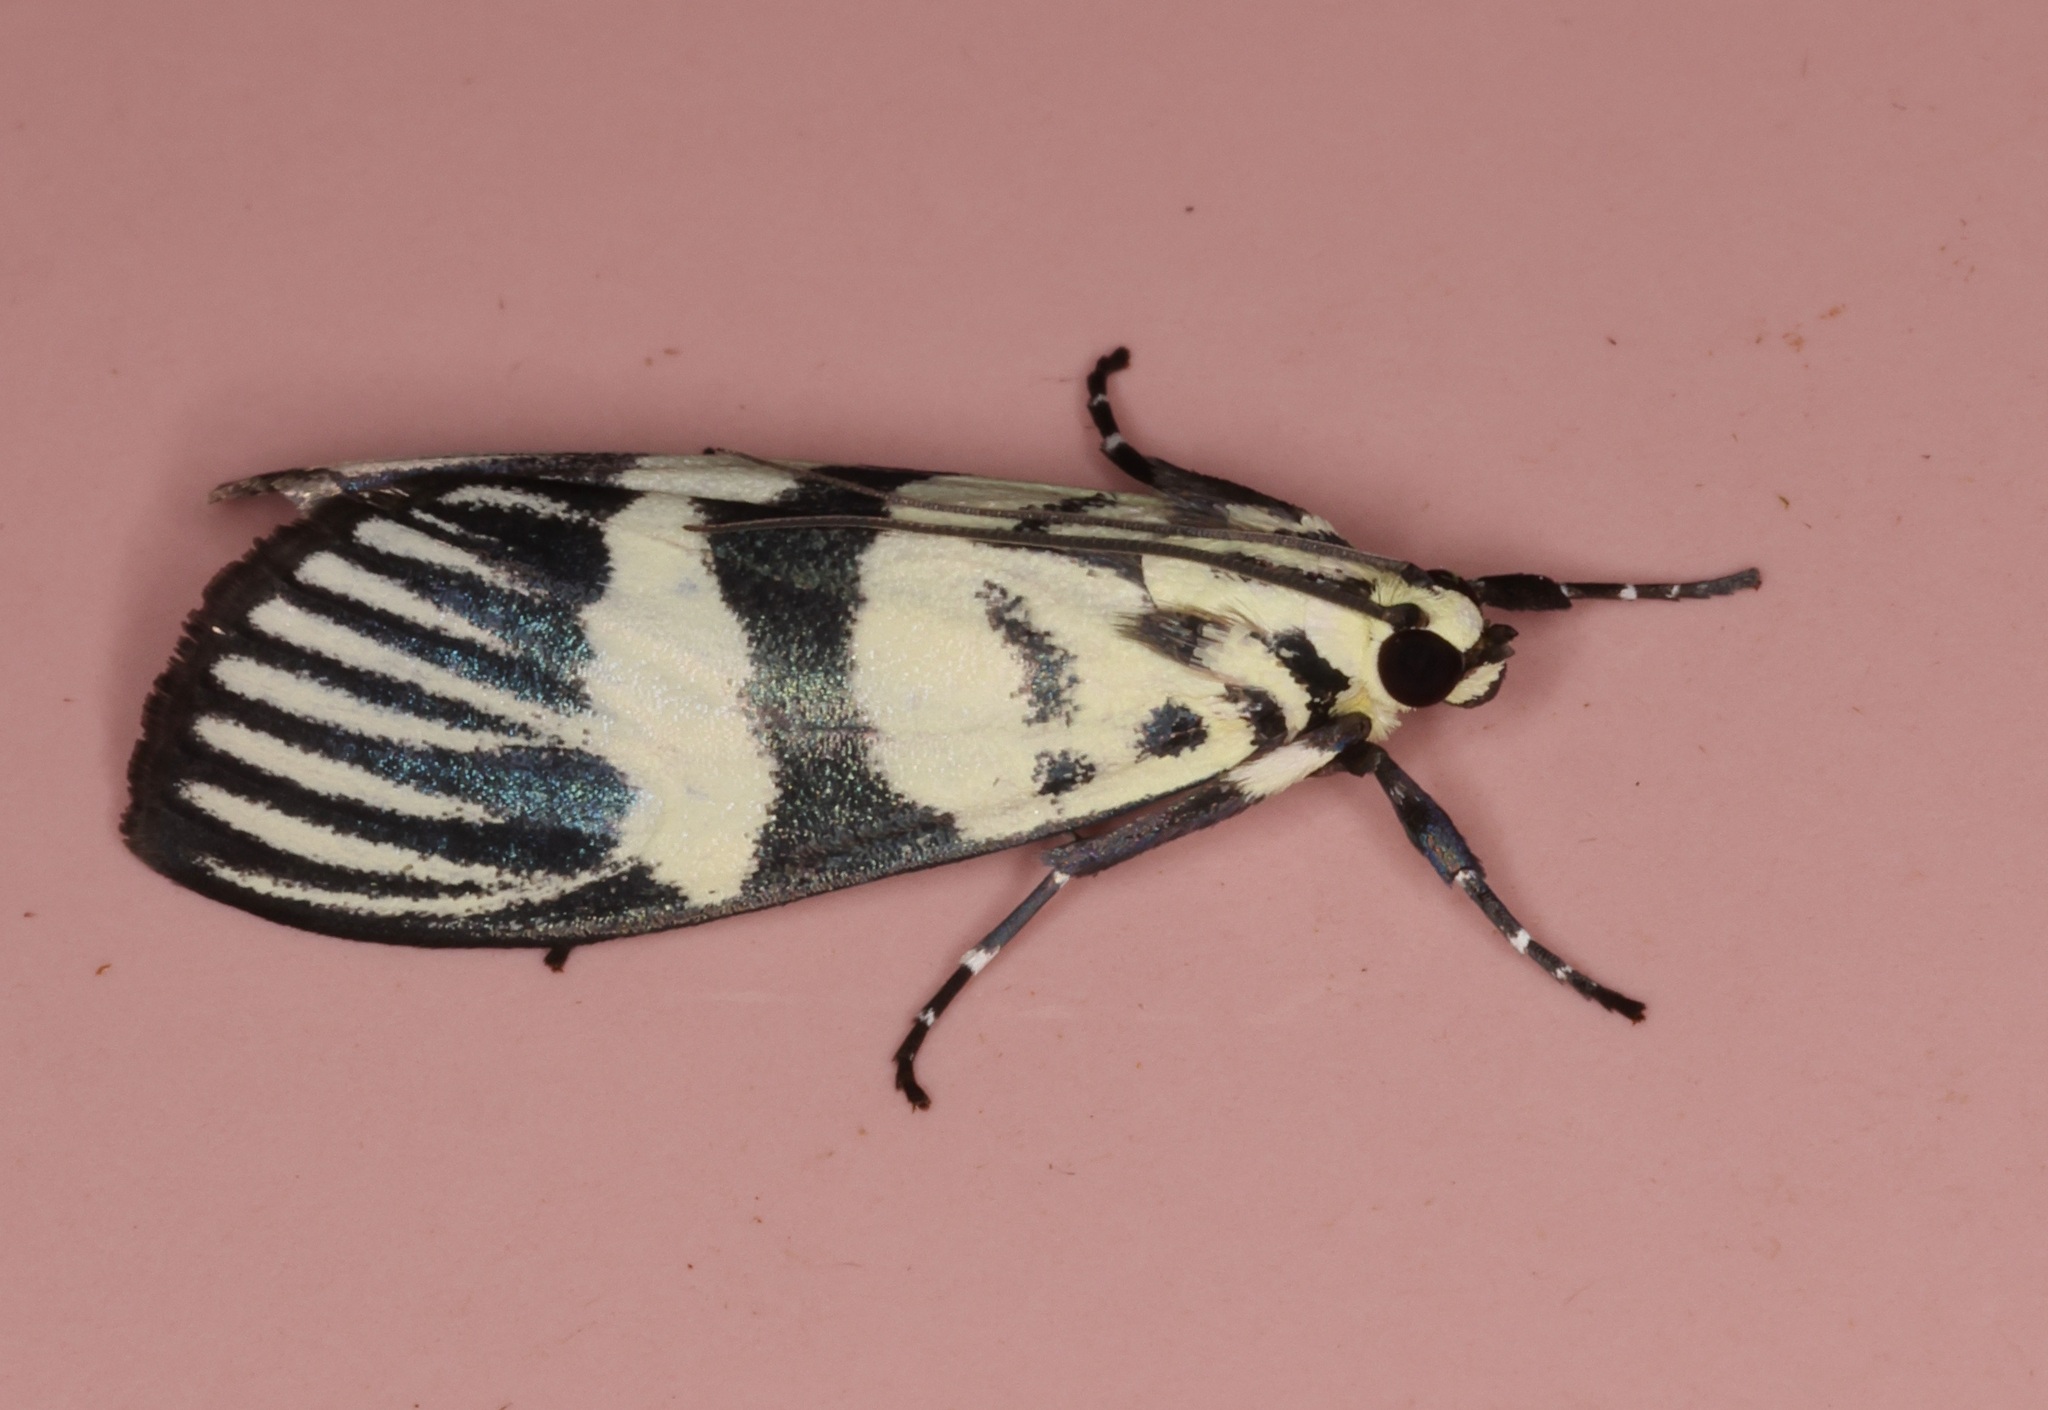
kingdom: Animalia
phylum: Arthropoda
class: Insecta
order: Lepidoptera
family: Crambidae
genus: Heortia
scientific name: Heortia vitessoides
